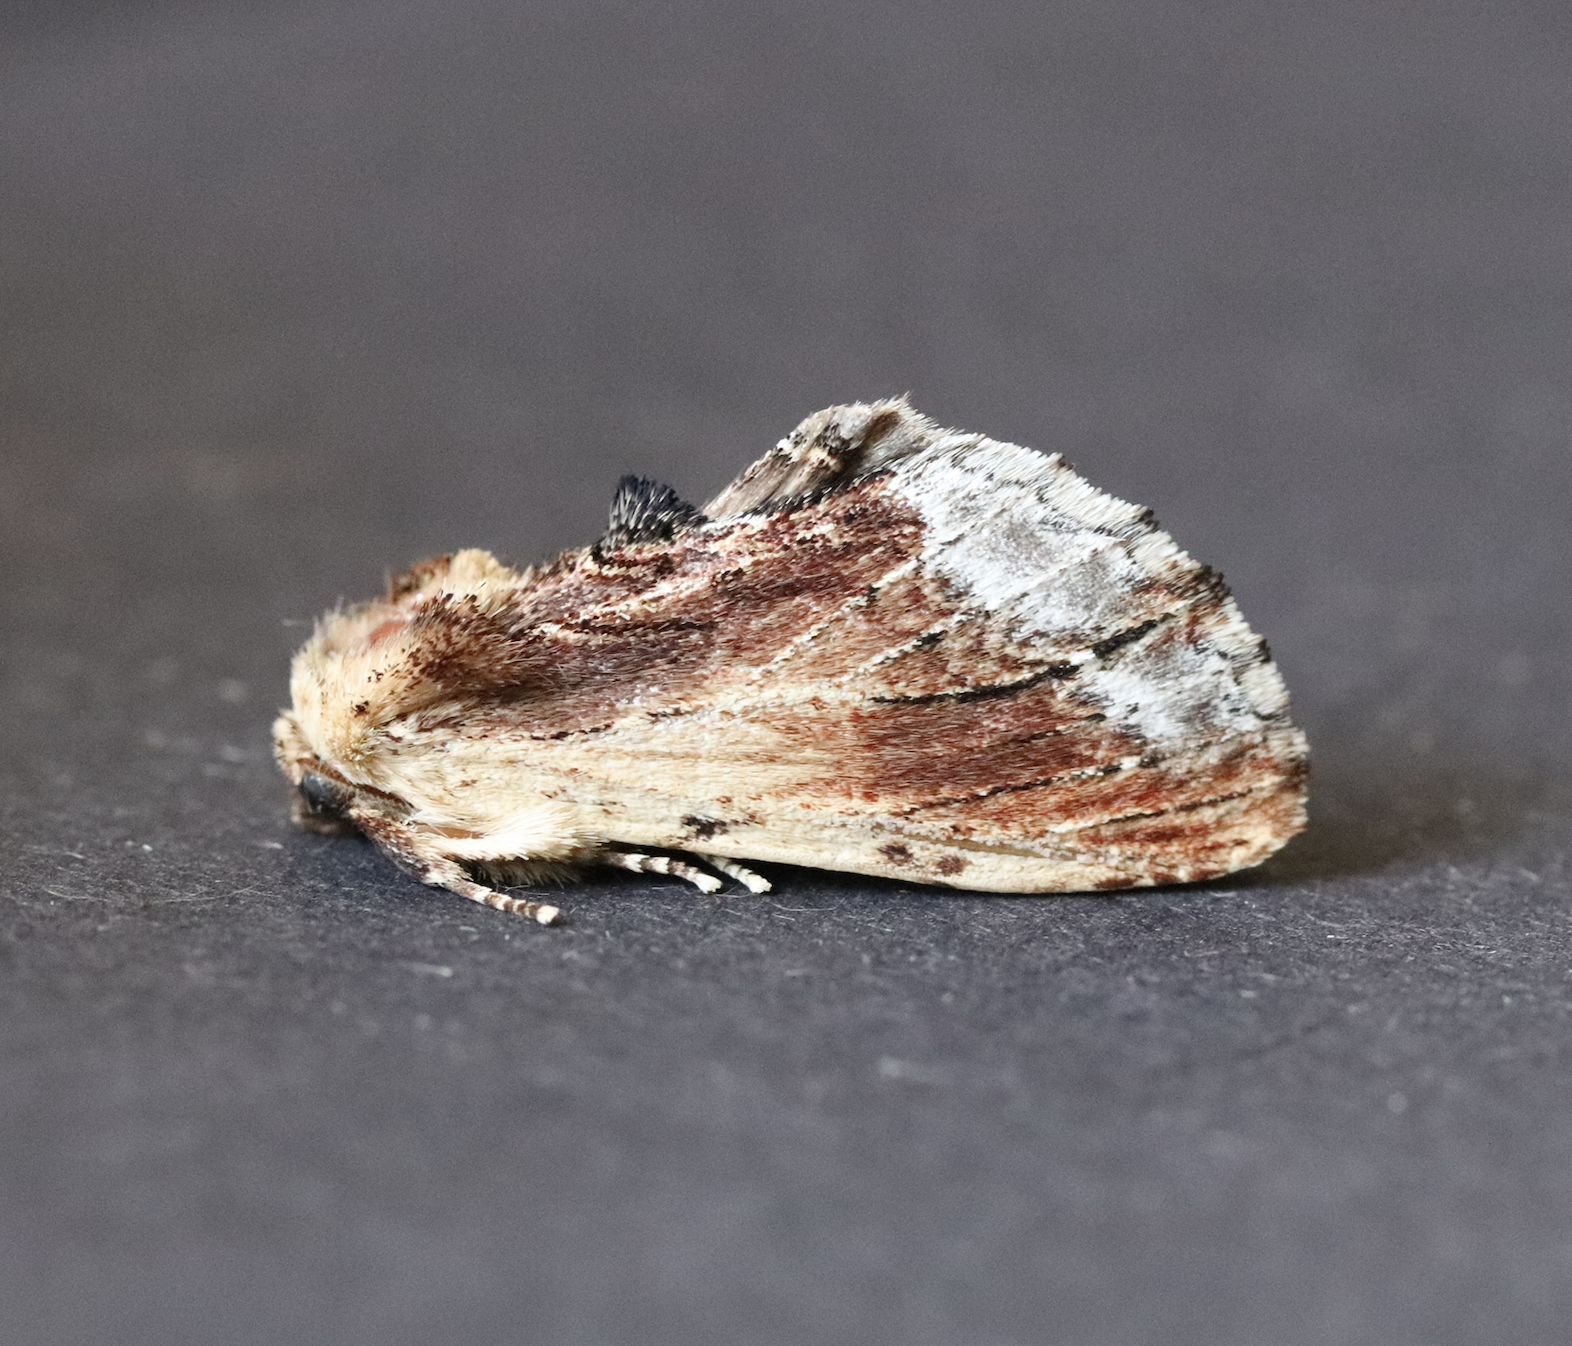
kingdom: Animalia
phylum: Arthropoda
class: Insecta
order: Lepidoptera
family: Notodontidae
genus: Ptilodon
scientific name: Ptilodon cucullina
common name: Maple prominent
